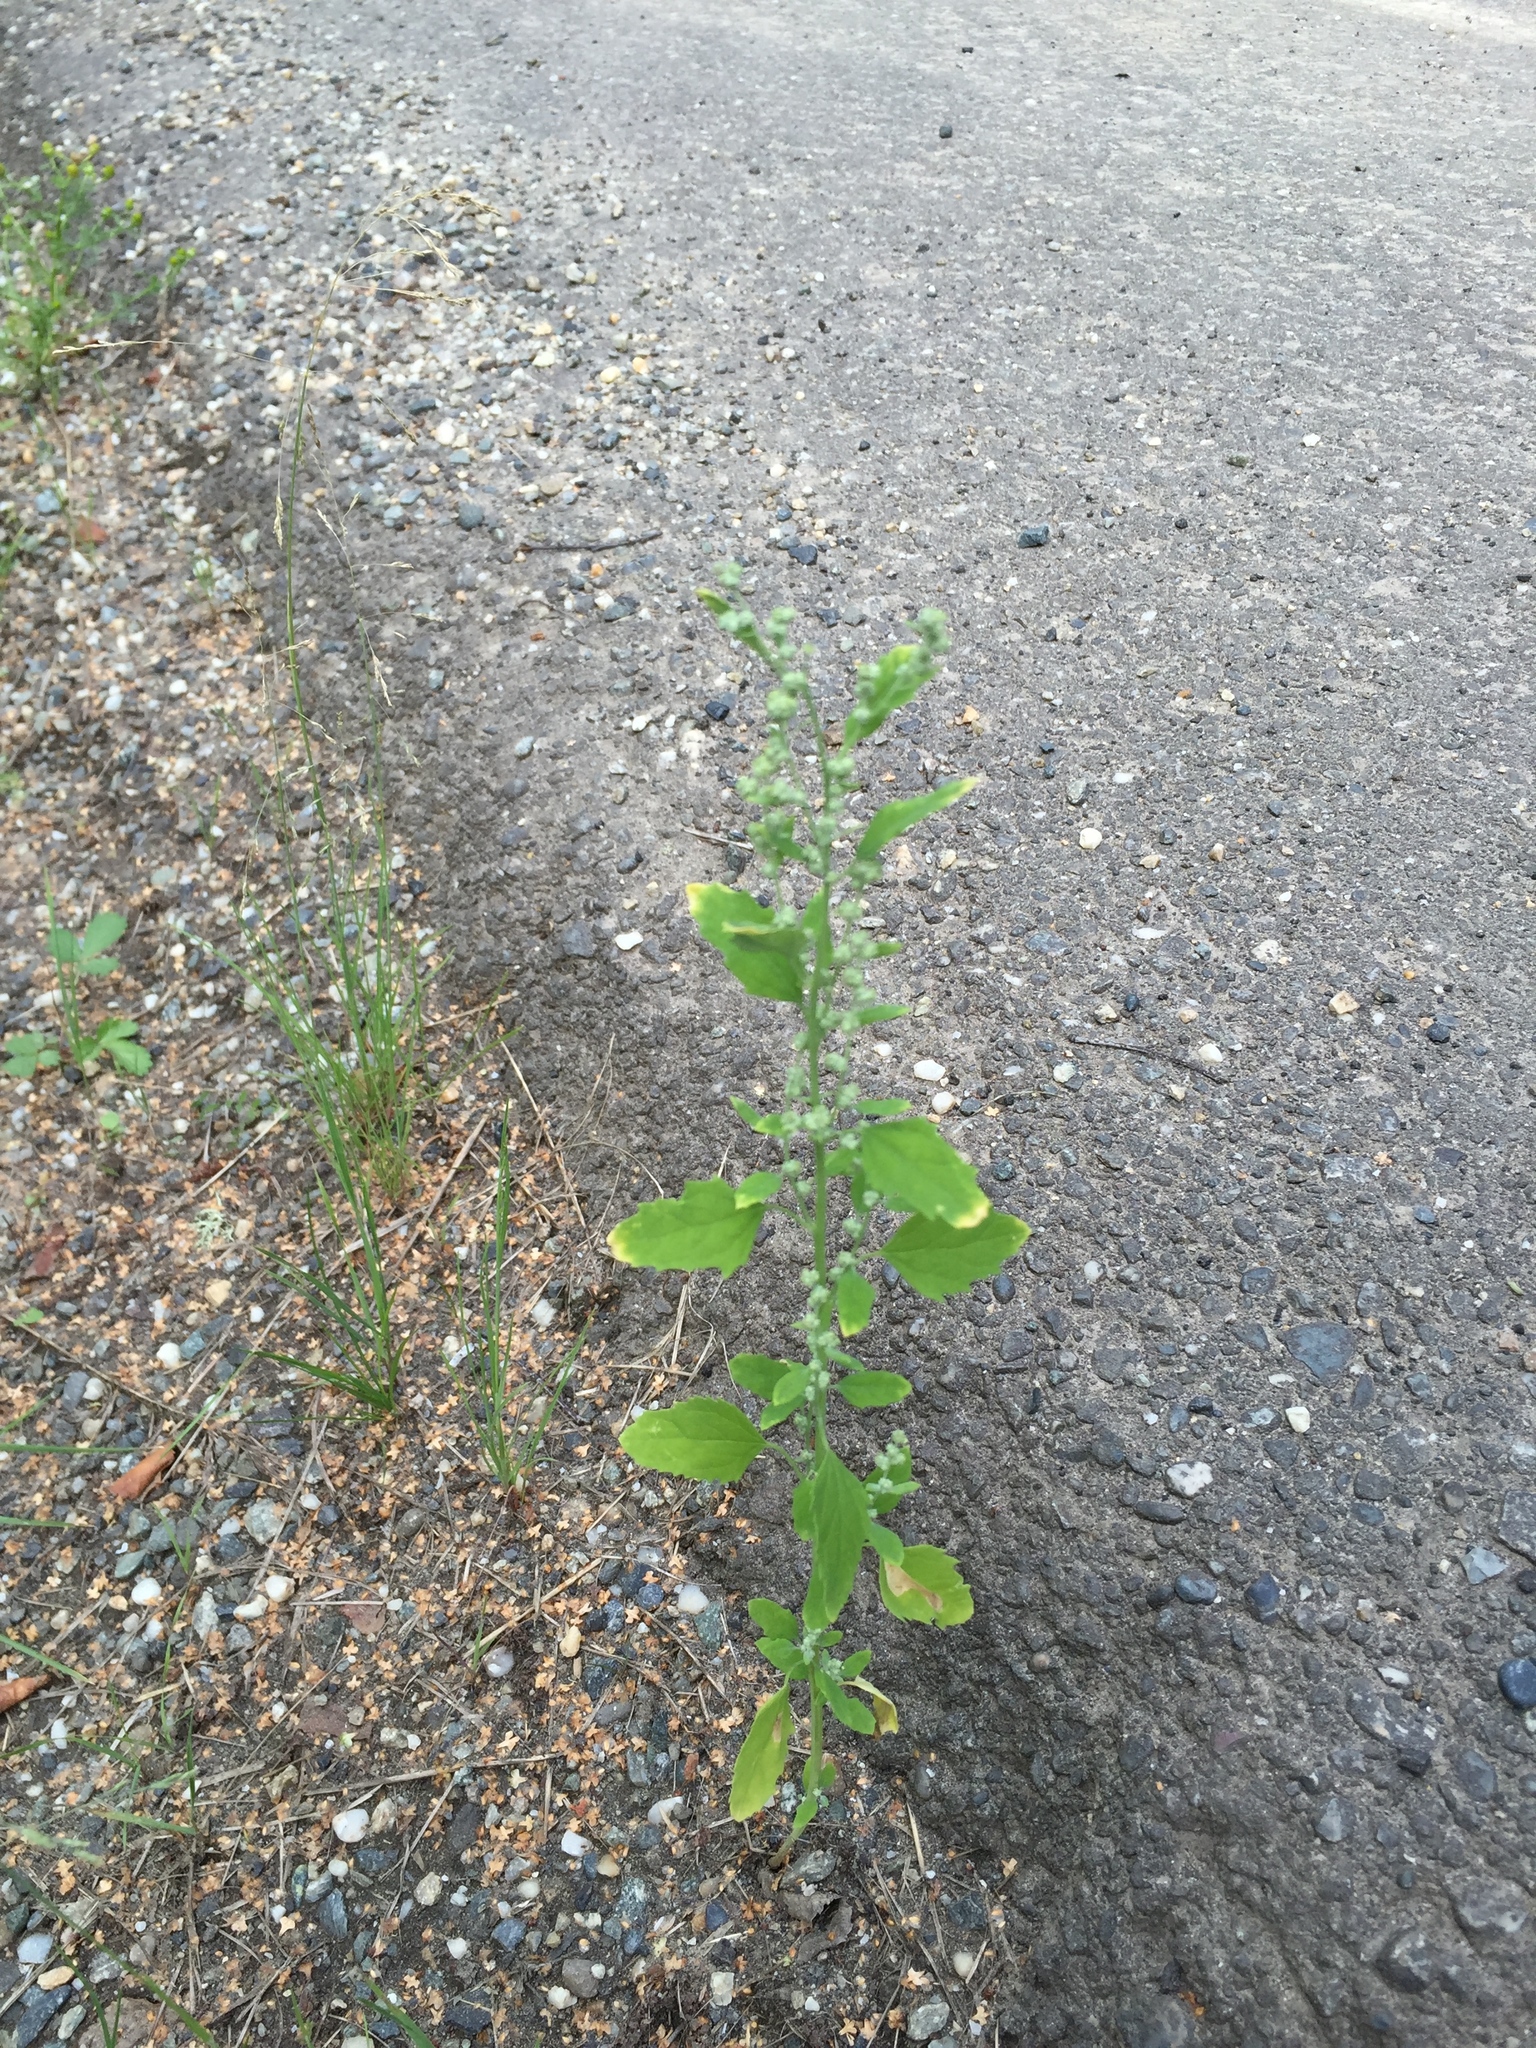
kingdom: Plantae
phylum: Tracheophyta
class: Magnoliopsida
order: Caryophyllales
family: Amaranthaceae
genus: Chenopodium
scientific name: Chenopodium album
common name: Fat-hen
